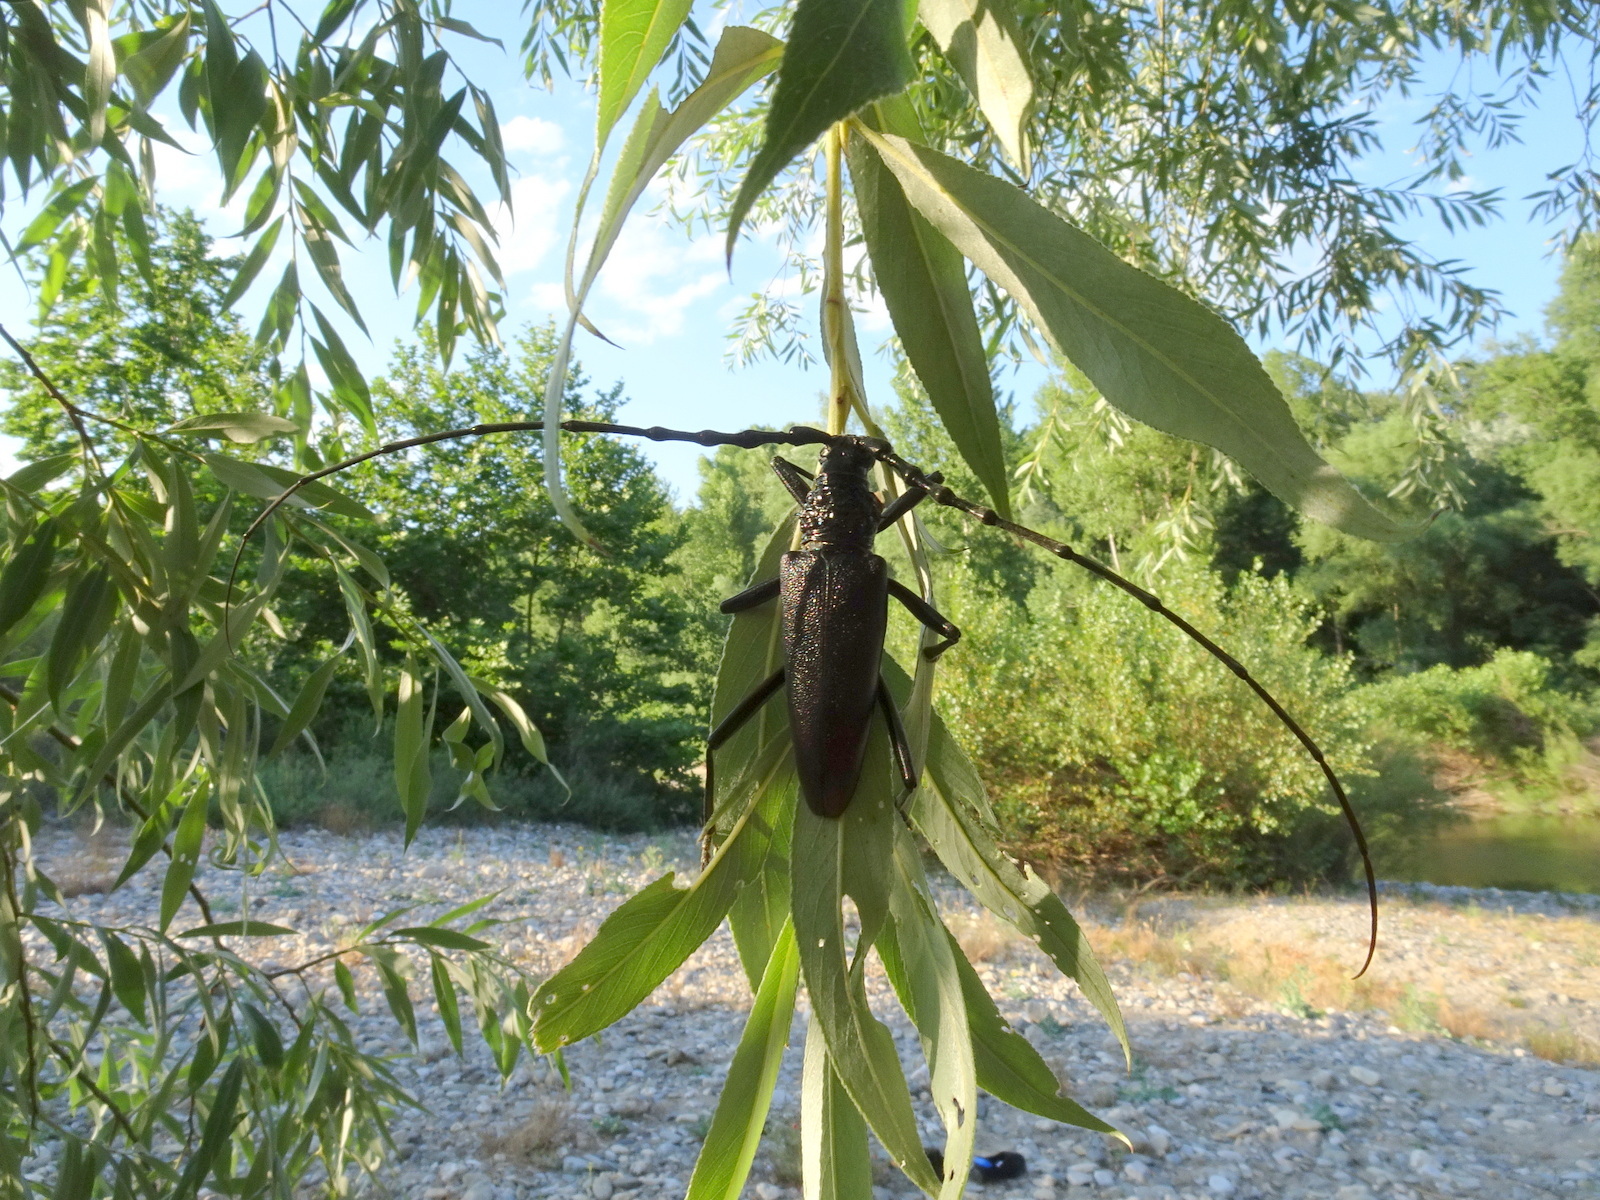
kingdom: Animalia
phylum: Arthropoda
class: Insecta
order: Coleoptera
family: Cerambycidae
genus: Cerambyx
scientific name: Cerambyx cerdo
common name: Cerambyx longicorn
